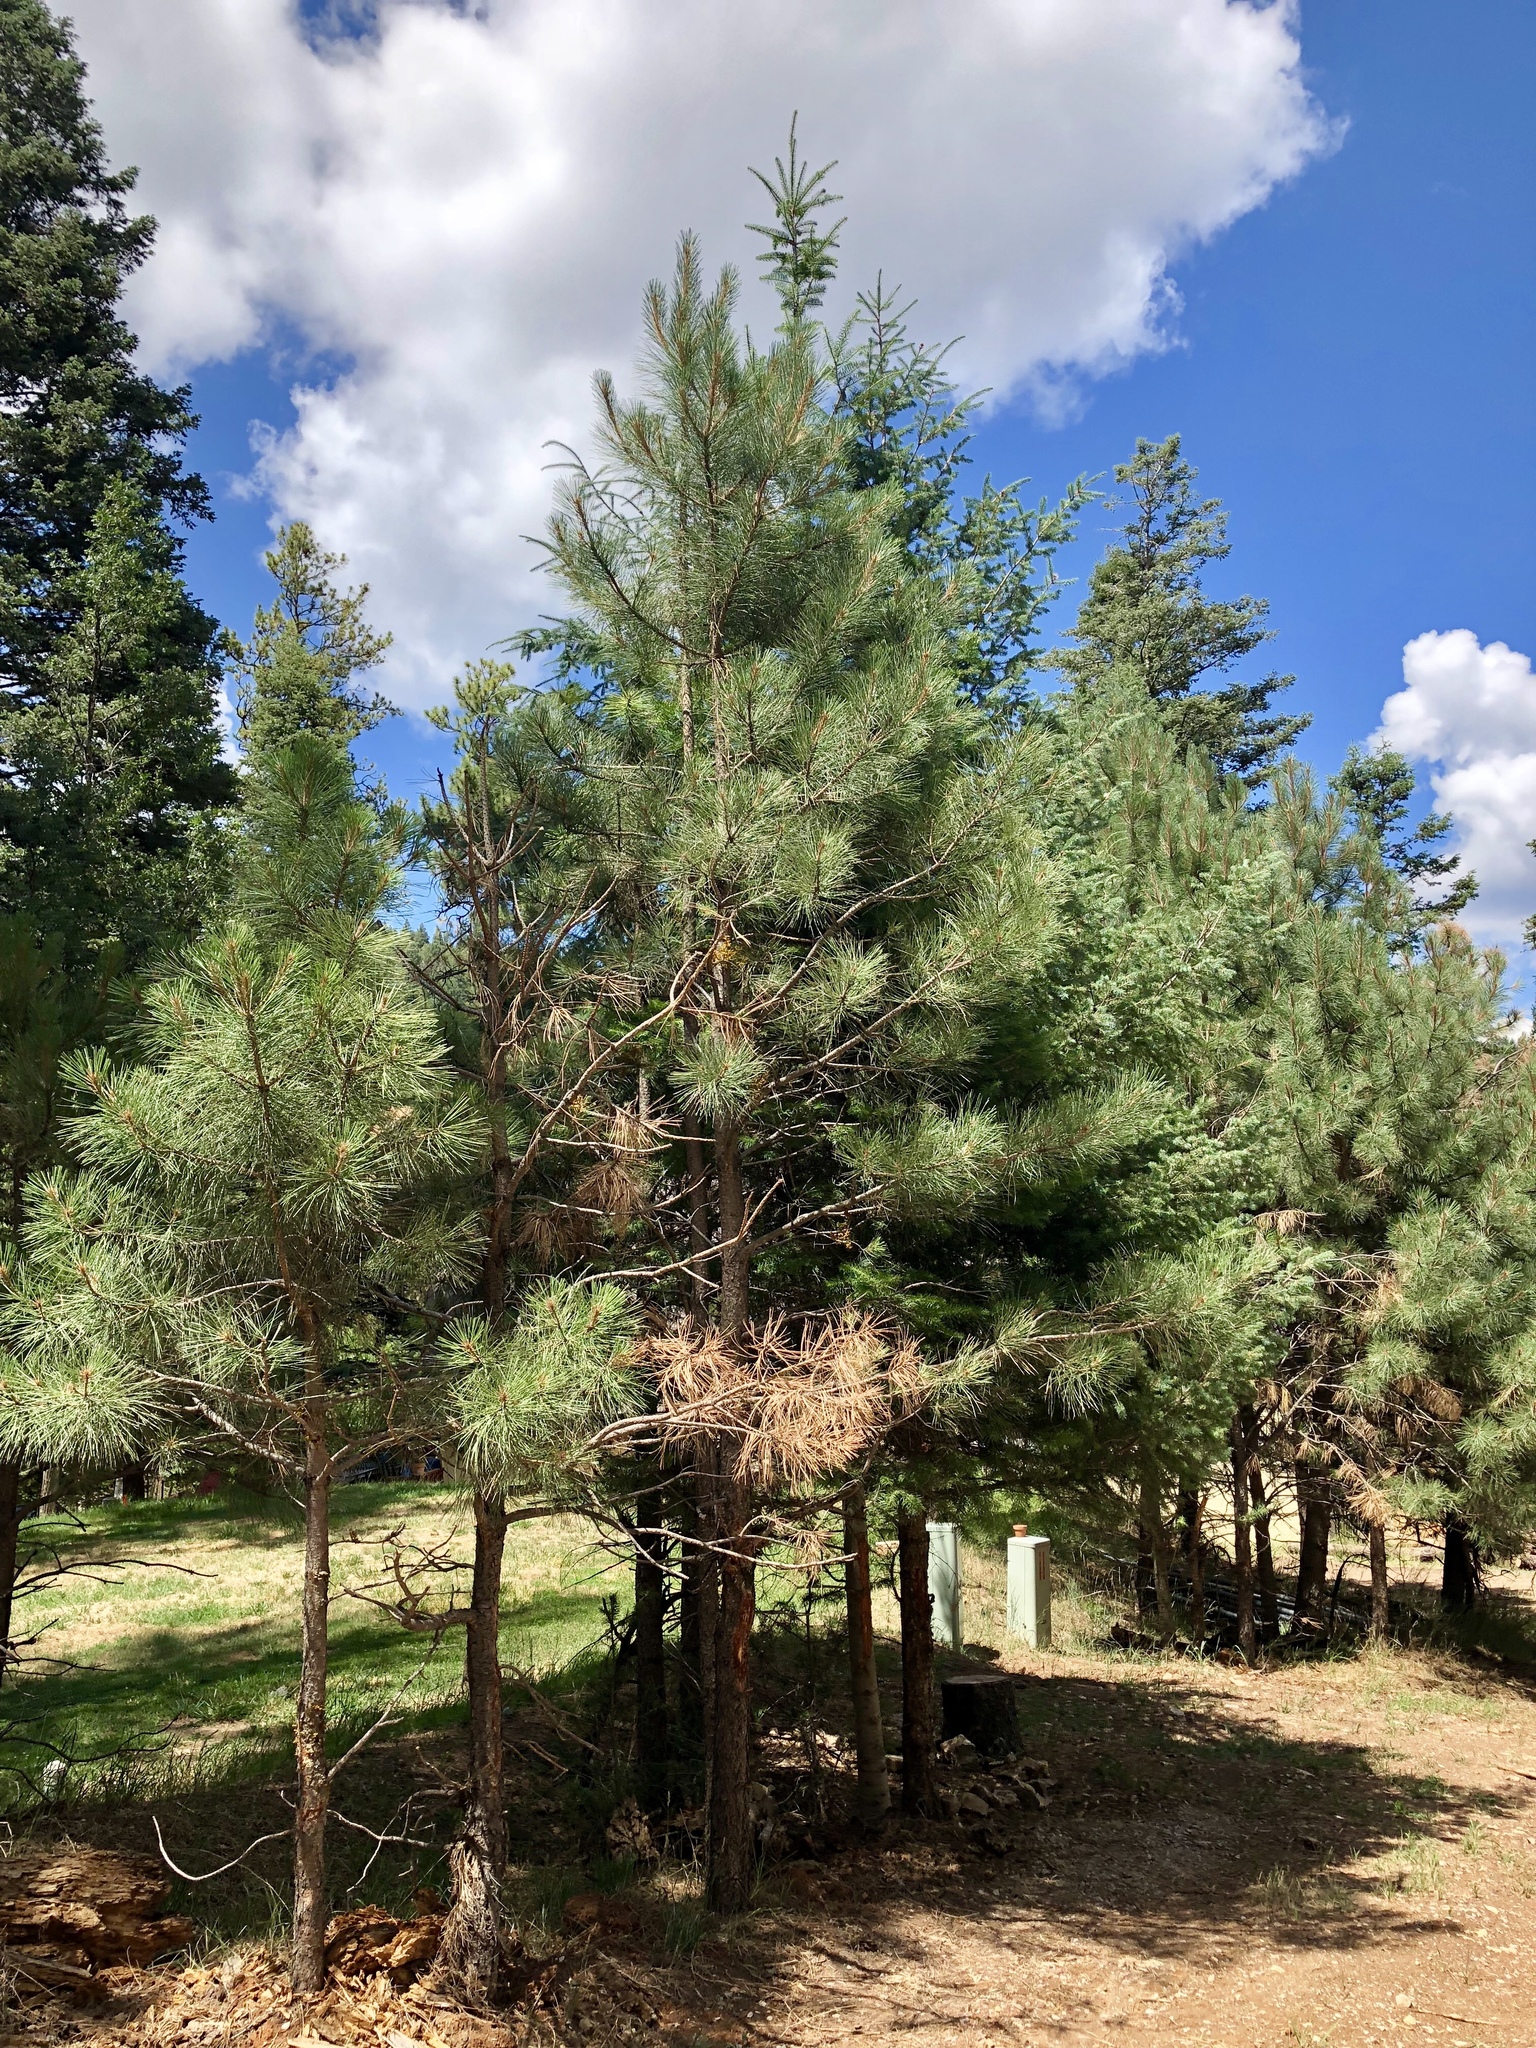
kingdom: Plantae
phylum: Tracheophyta
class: Pinopsida
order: Pinales
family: Pinaceae
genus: Pinus
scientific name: Pinus ponderosa
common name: Western yellow-pine
